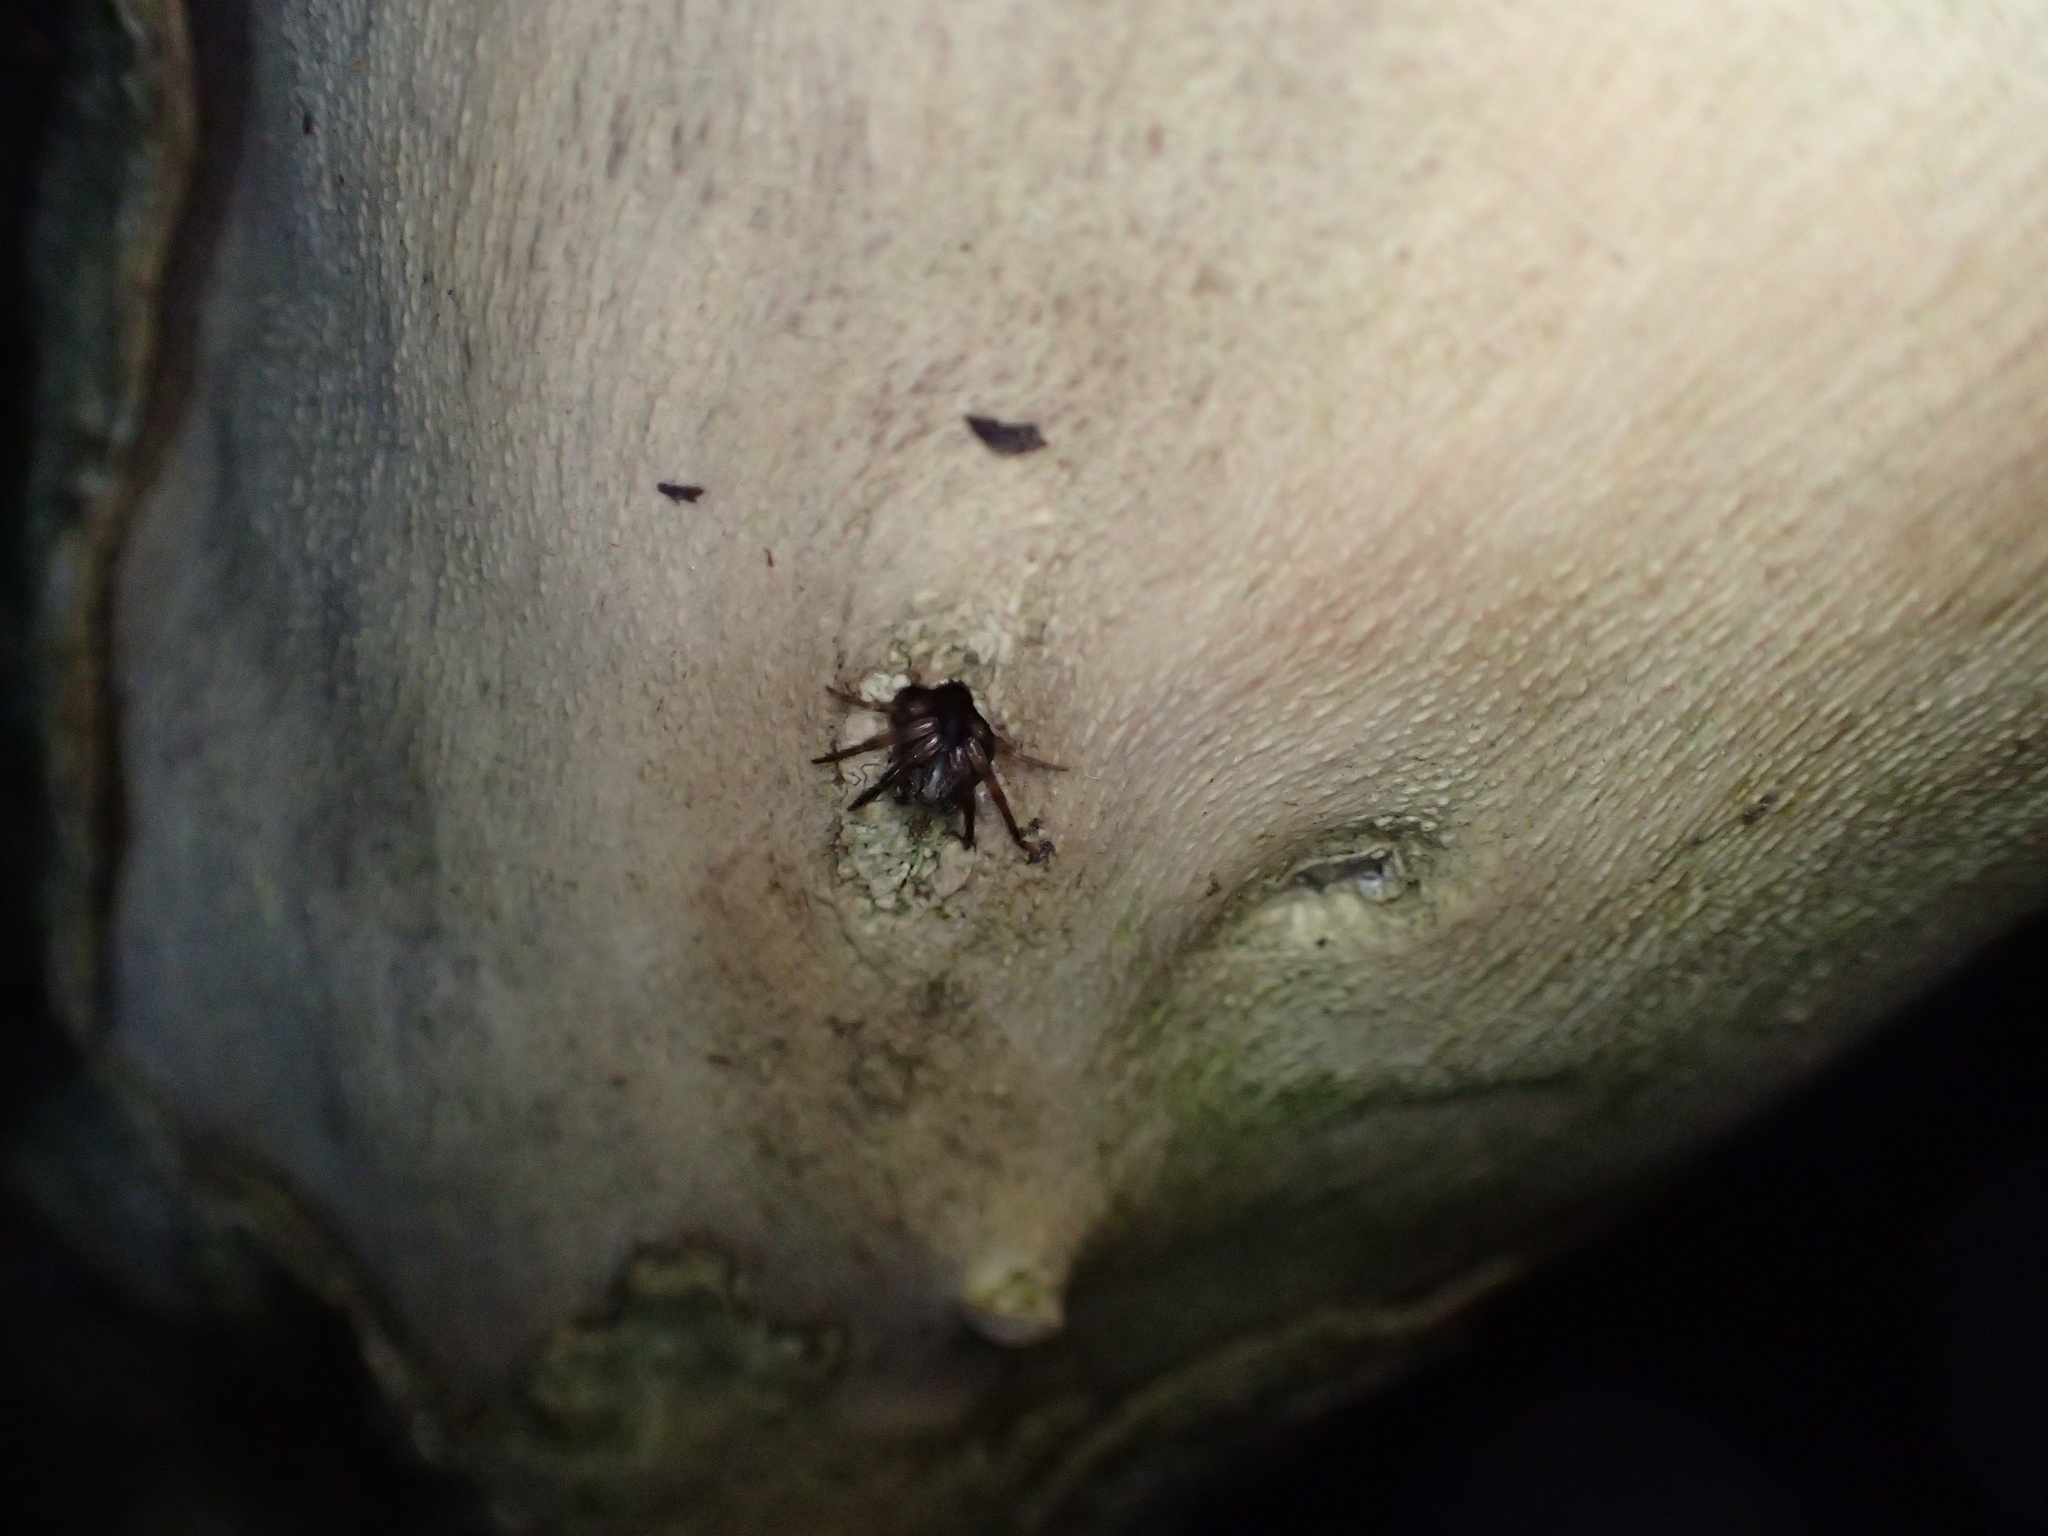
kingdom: Animalia
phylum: Arthropoda
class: Arachnida
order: Araneae
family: Cycloctenidae
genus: Plectophanes
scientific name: Plectophanes
